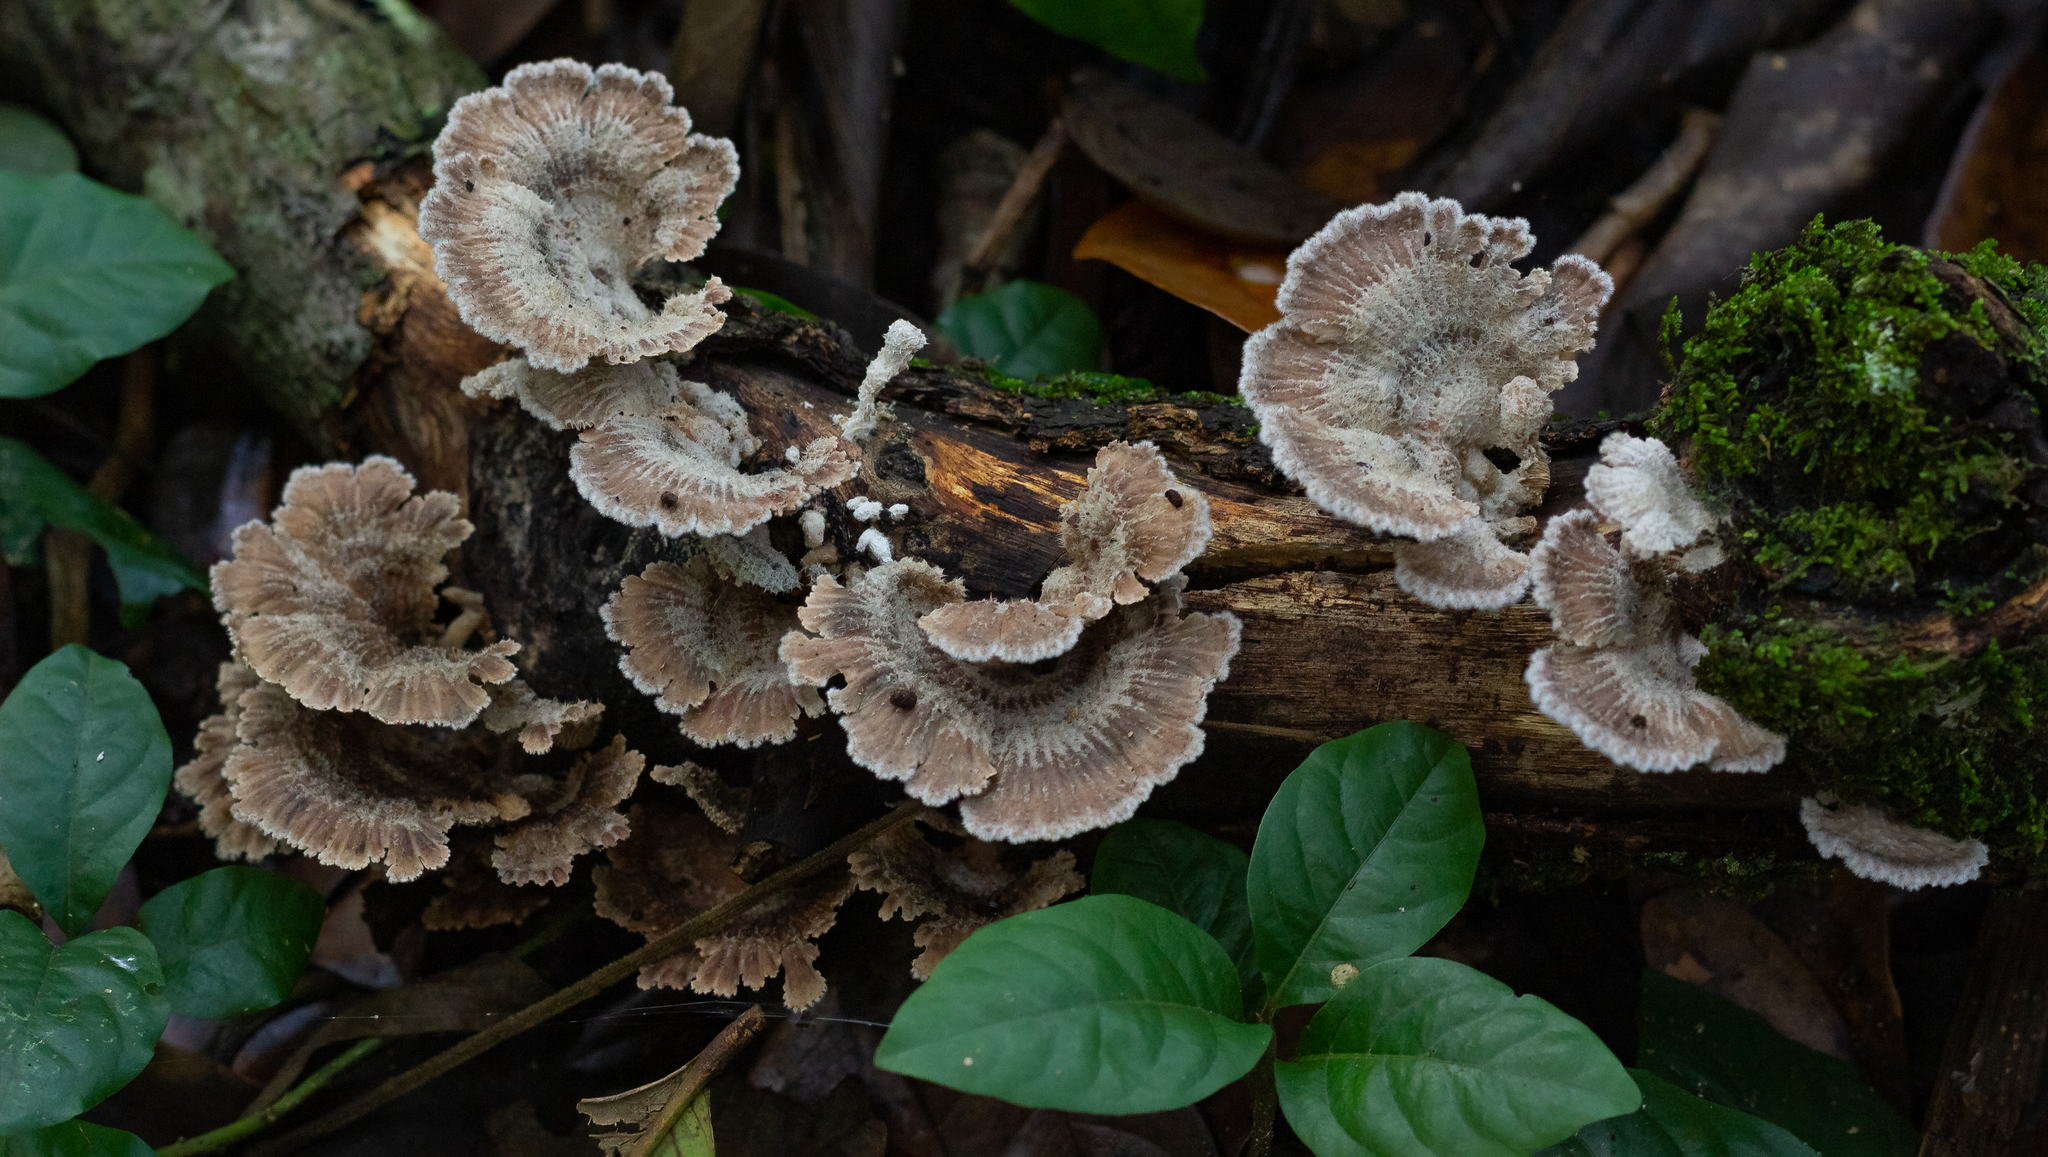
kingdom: Fungi
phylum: Basidiomycota
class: Agaricomycetes
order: Agaricales
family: Schizophyllaceae
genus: Schizophyllum
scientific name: Schizophyllum commune
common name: Common porecrust
